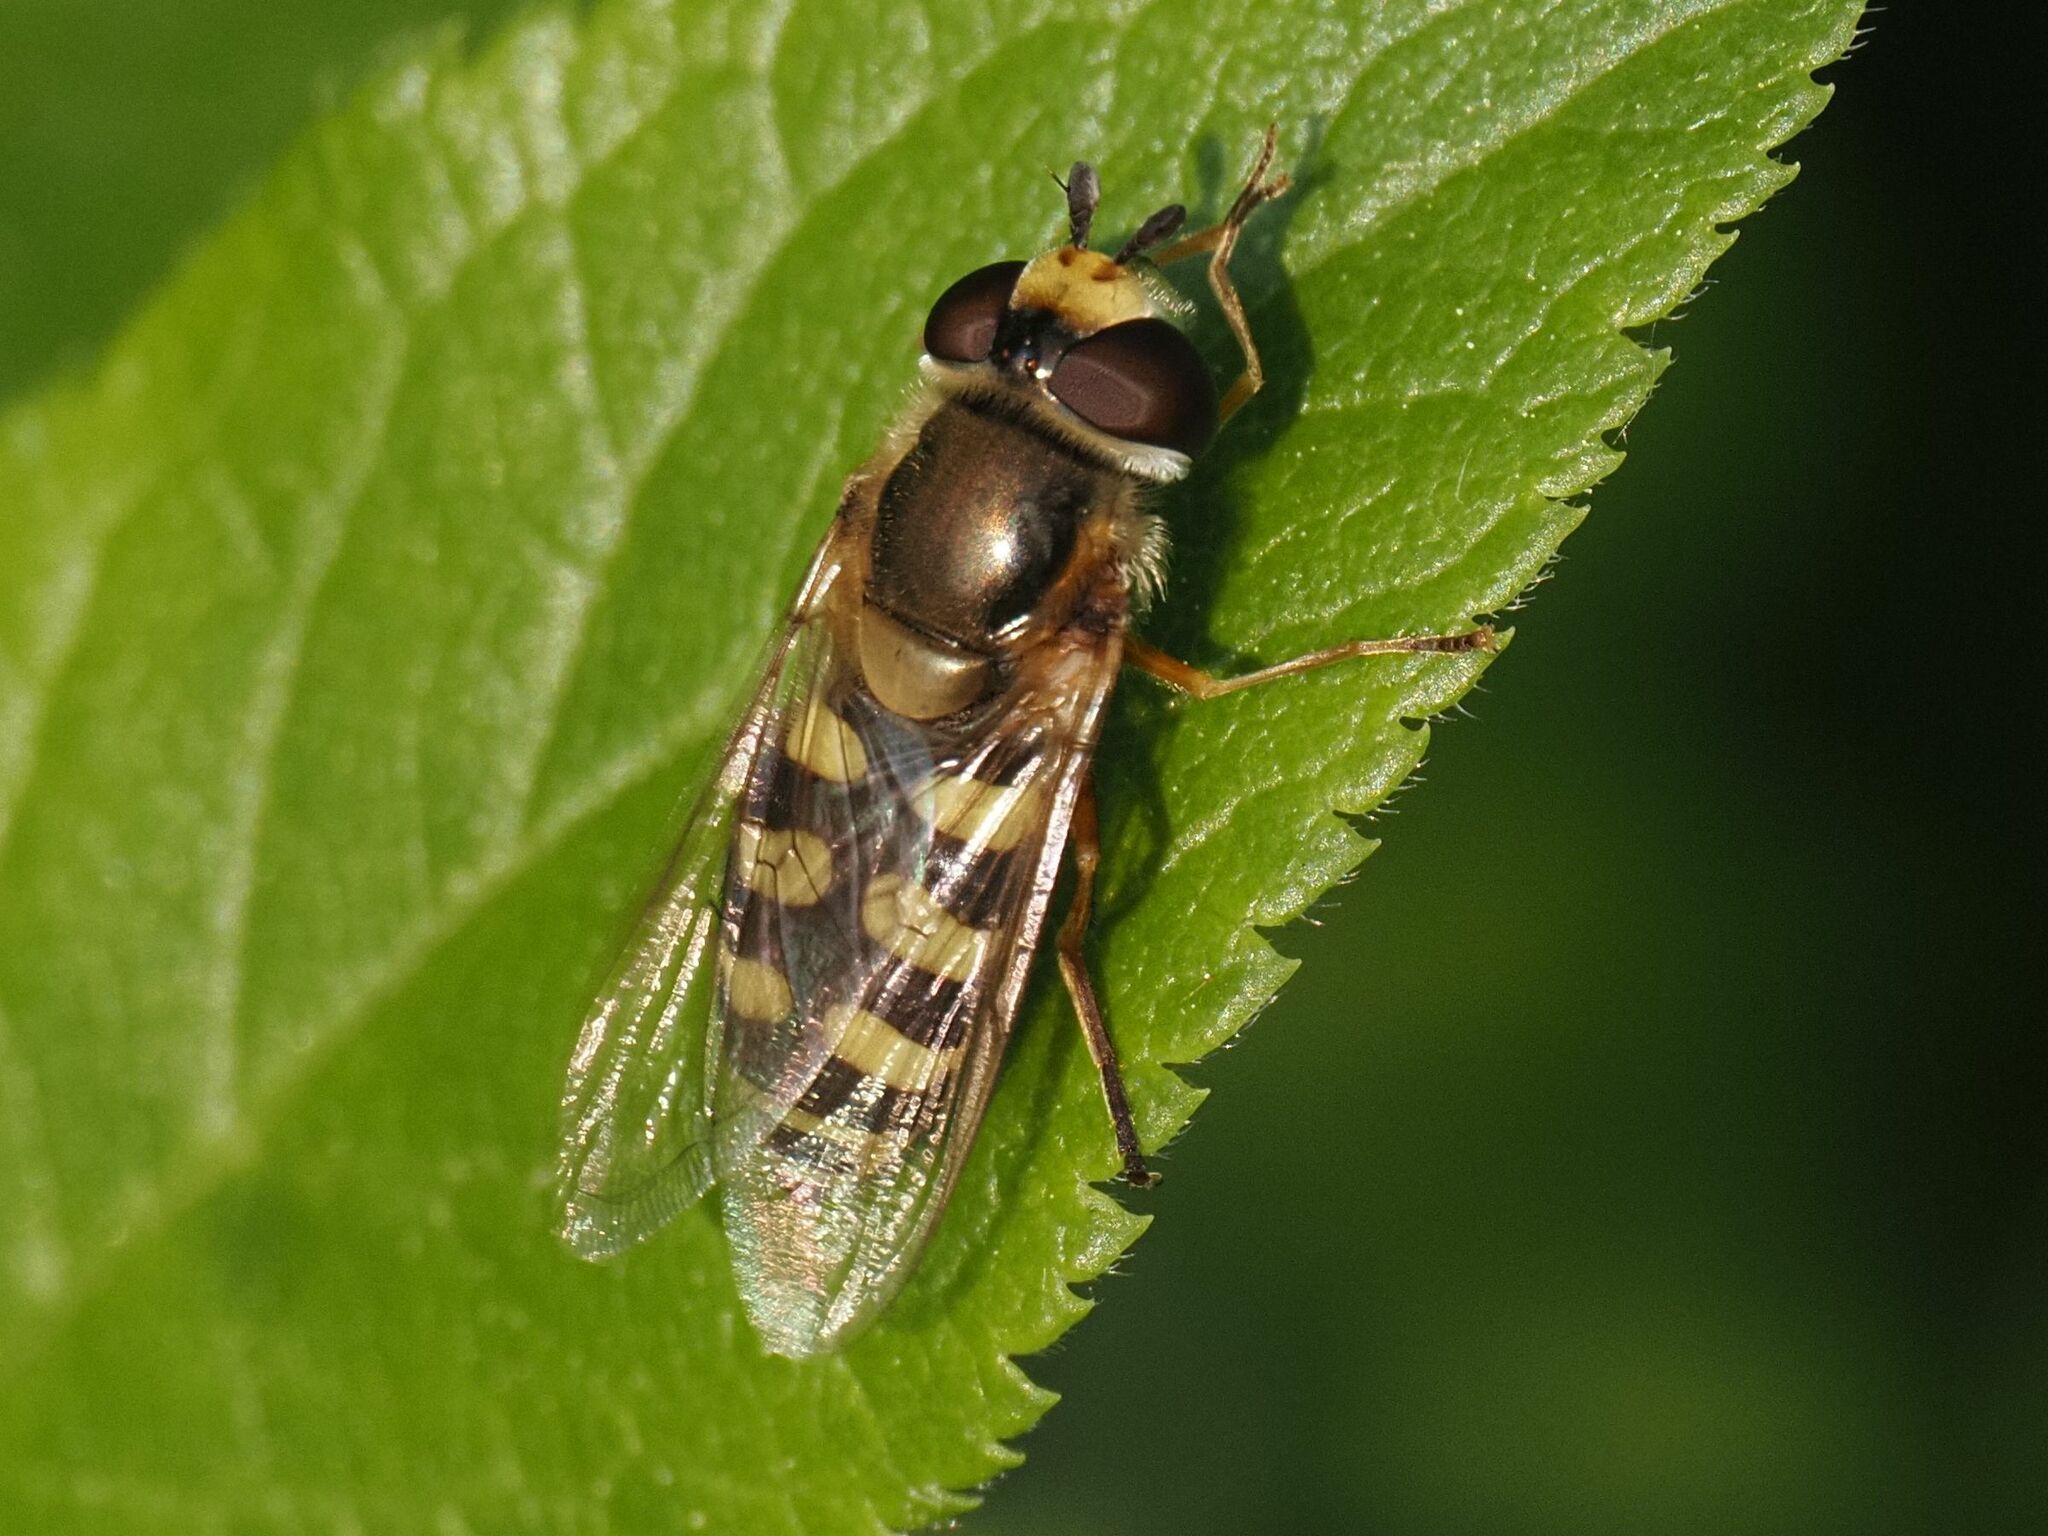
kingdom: Animalia
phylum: Arthropoda
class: Insecta
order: Diptera
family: Syrphidae
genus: Eupeodes
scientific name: Eupeodes corollae
